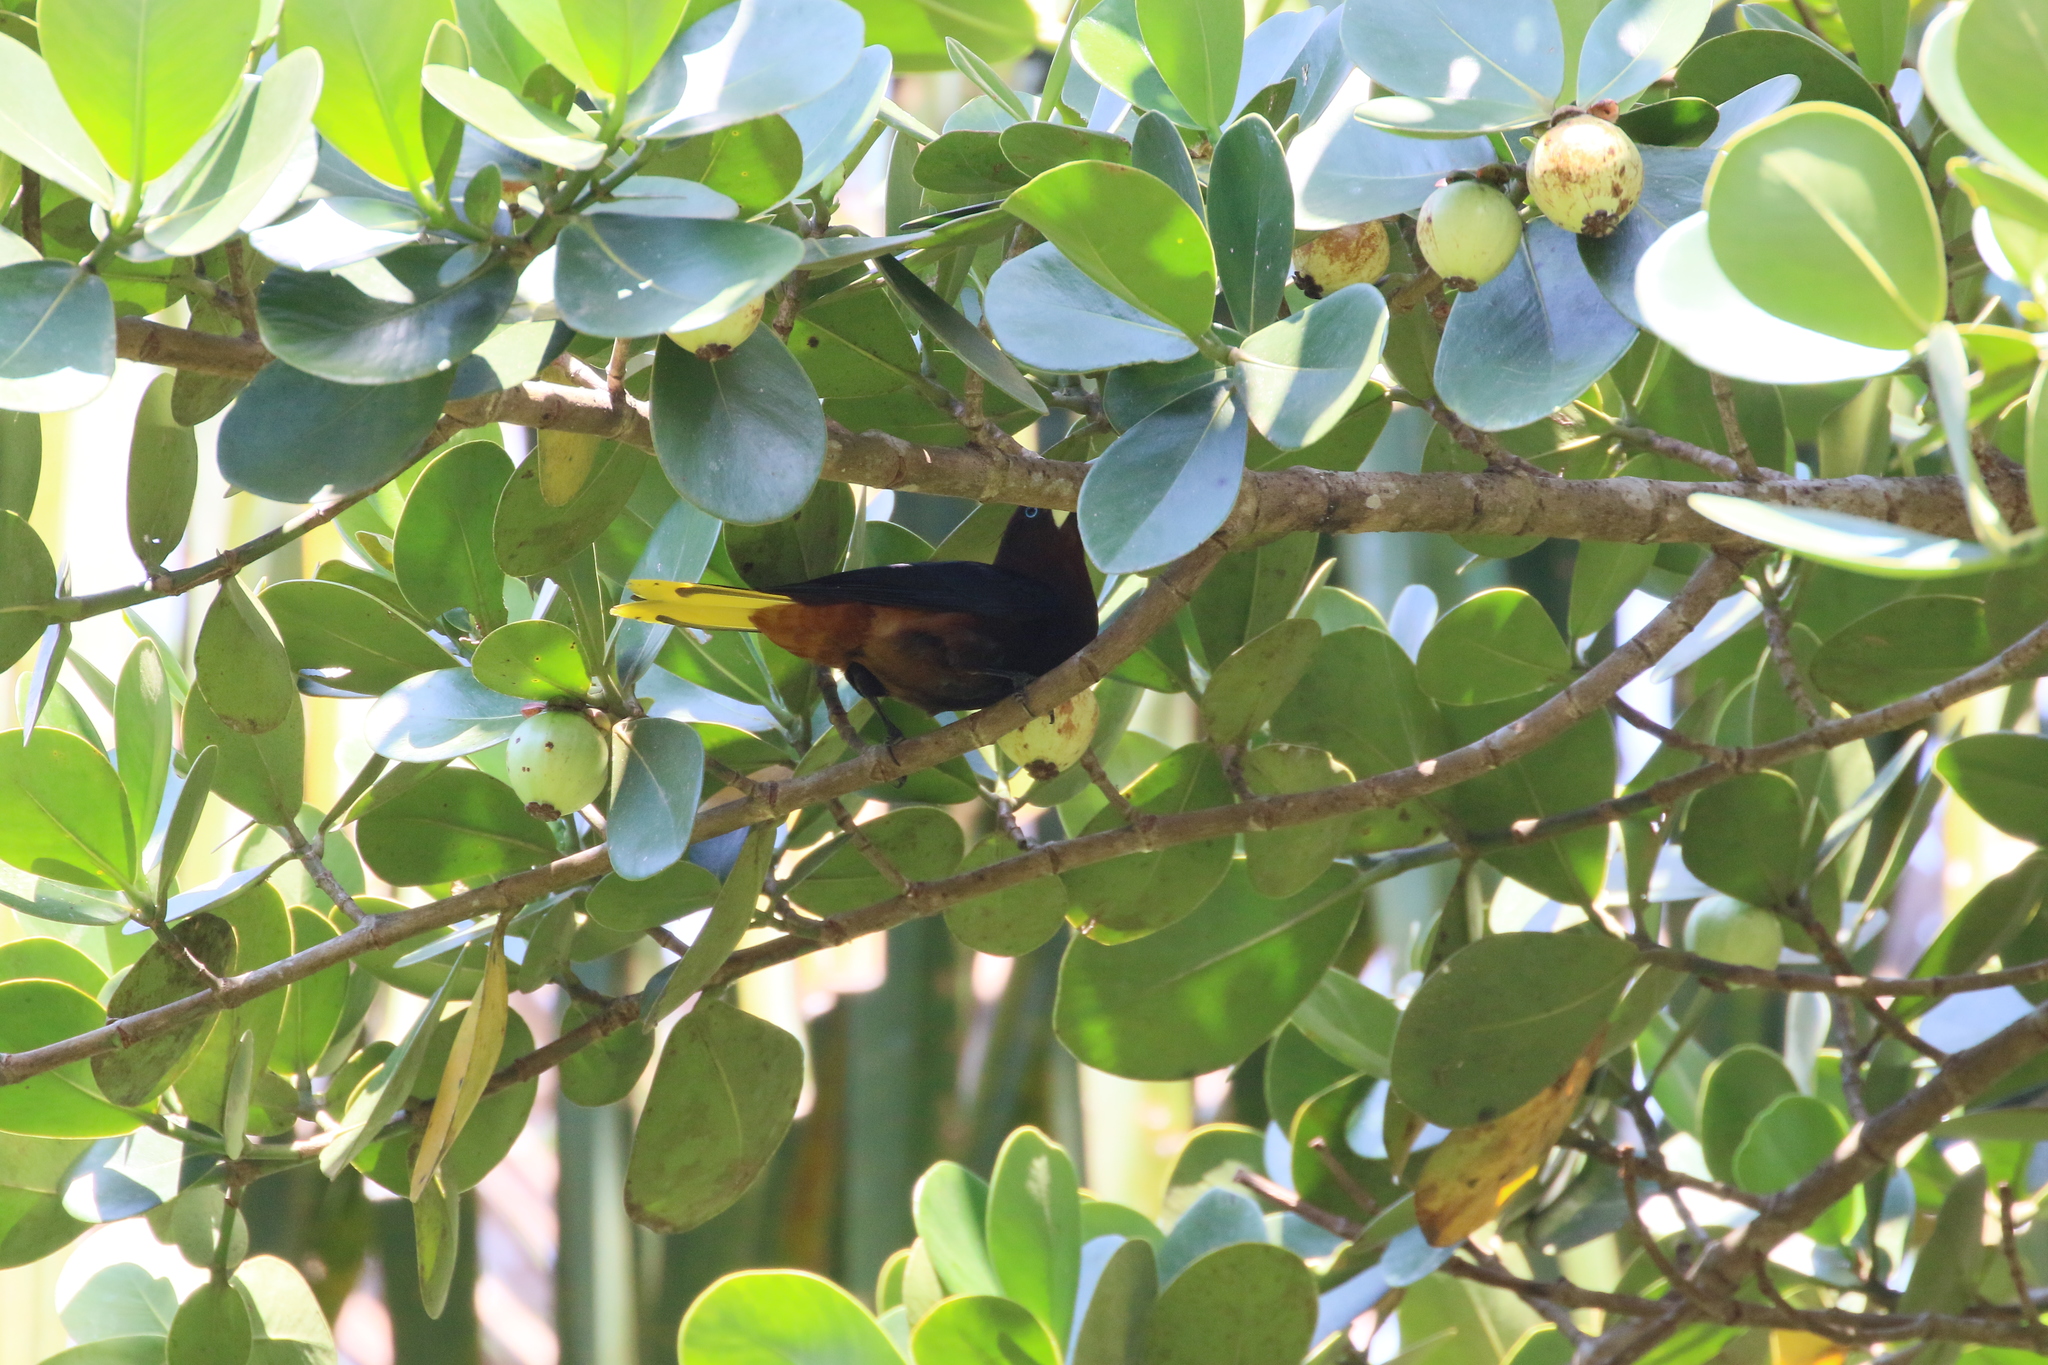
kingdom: Animalia
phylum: Chordata
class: Aves
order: Passeriformes
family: Icteridae
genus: Psarocolius
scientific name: Psarocolius wagleri
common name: Chestnut-headed oropendola
